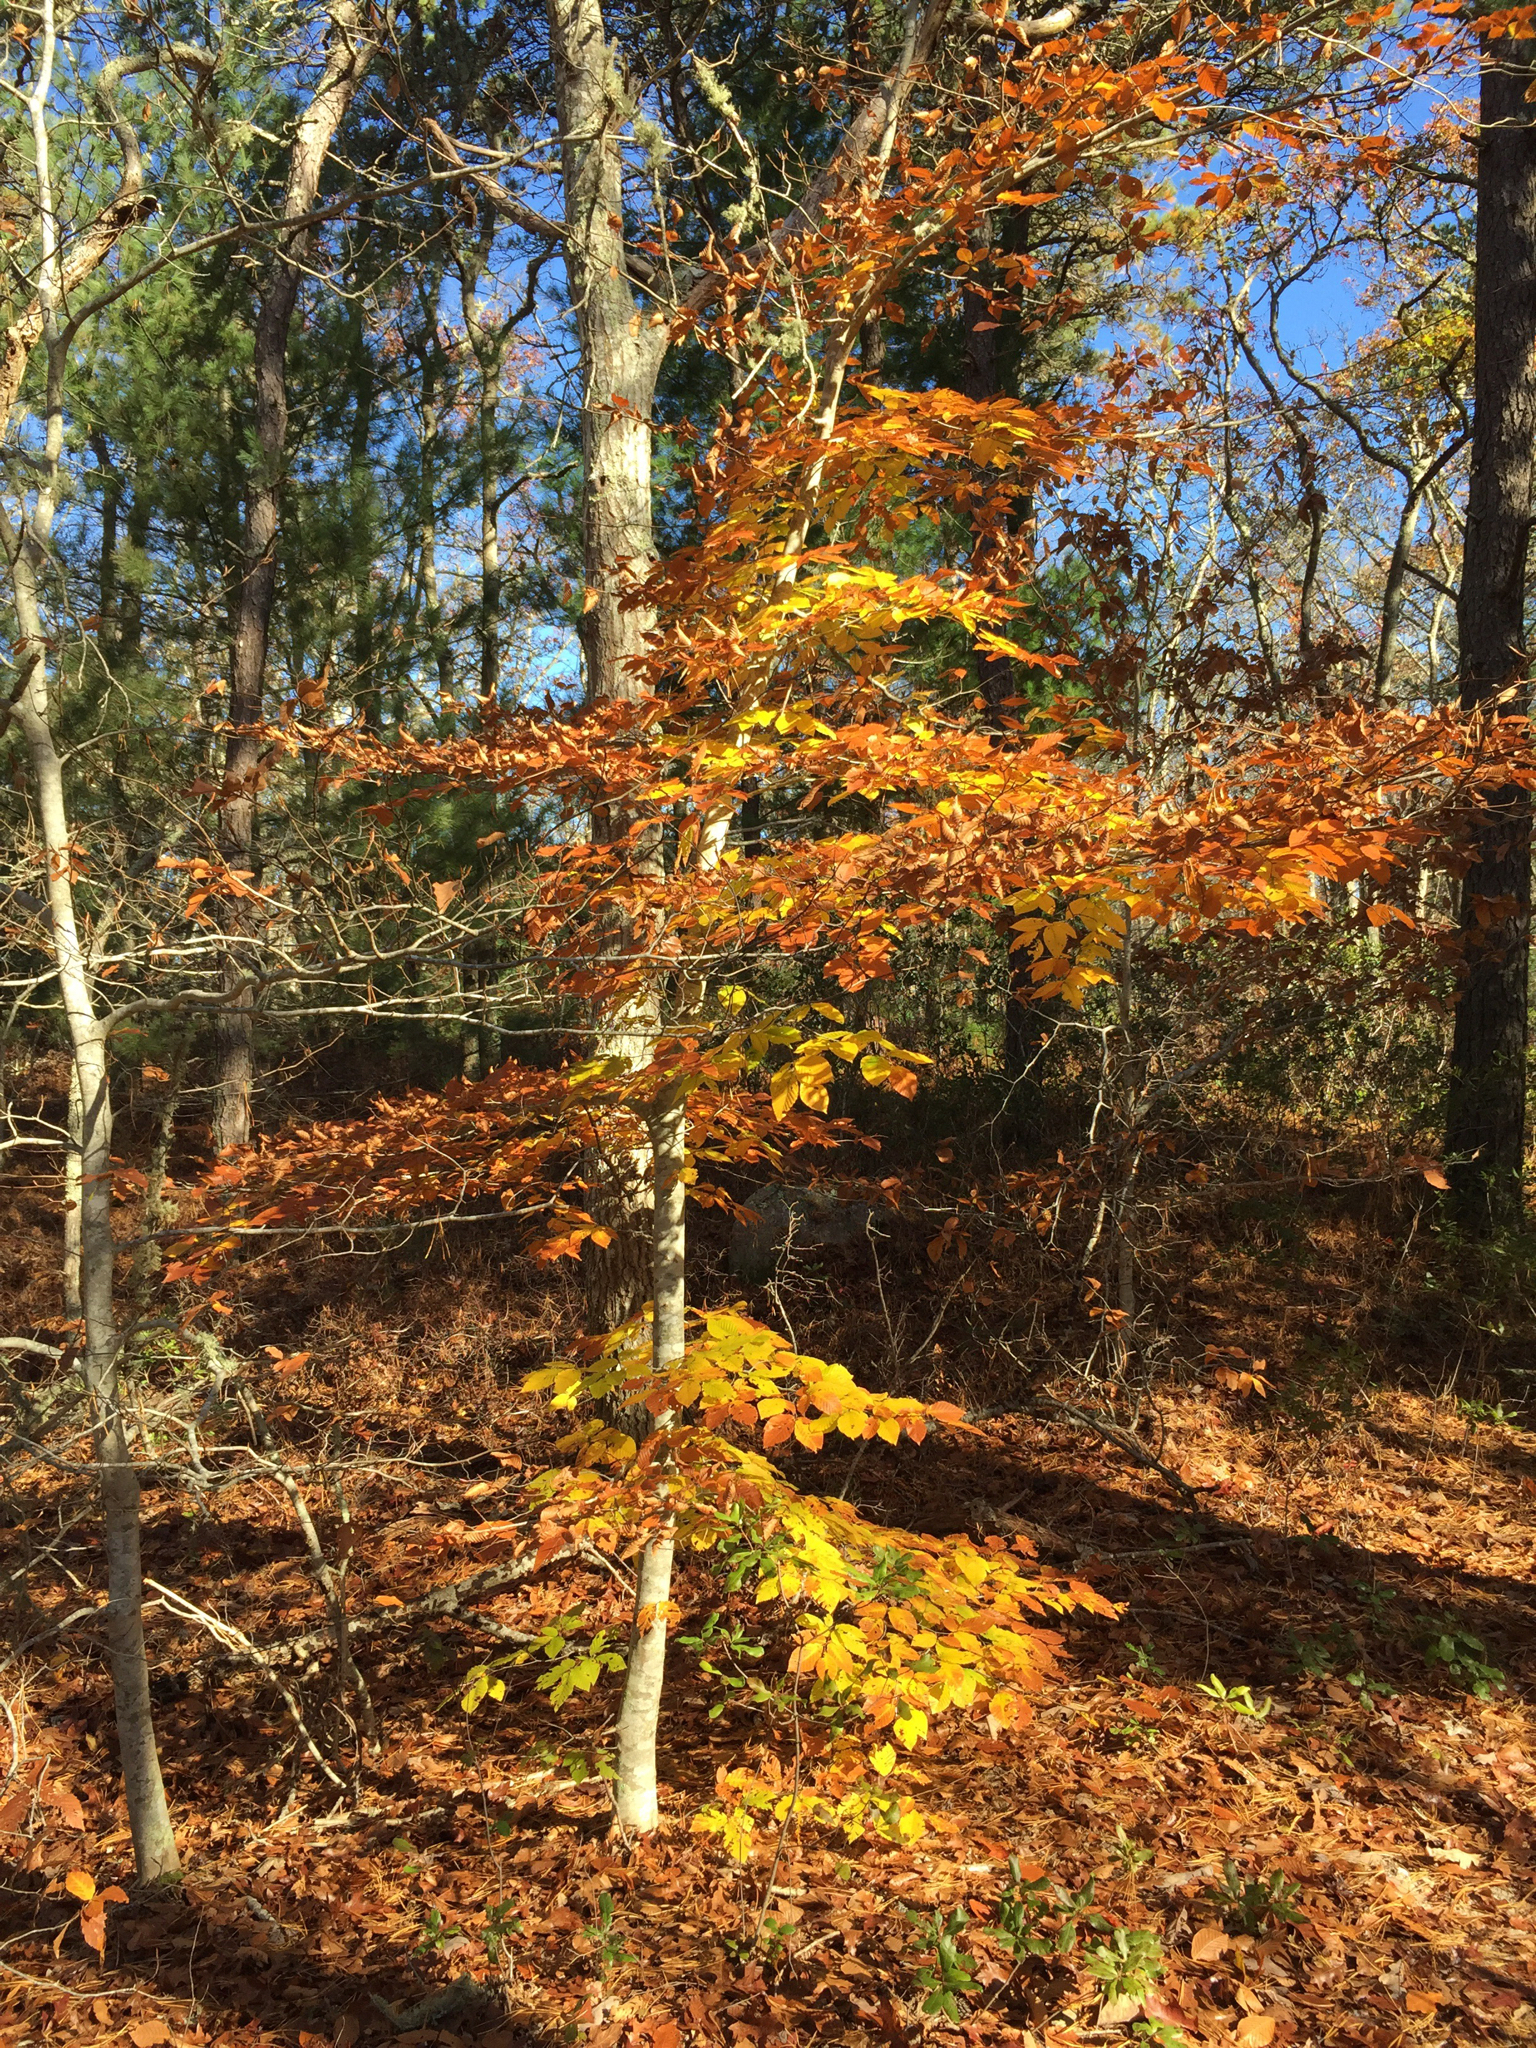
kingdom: Plantae
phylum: Tracheophyta
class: Magnoliopsida
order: Fagales
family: Fagaceae
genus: Fagus
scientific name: Fagus grandifolia
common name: American beech
